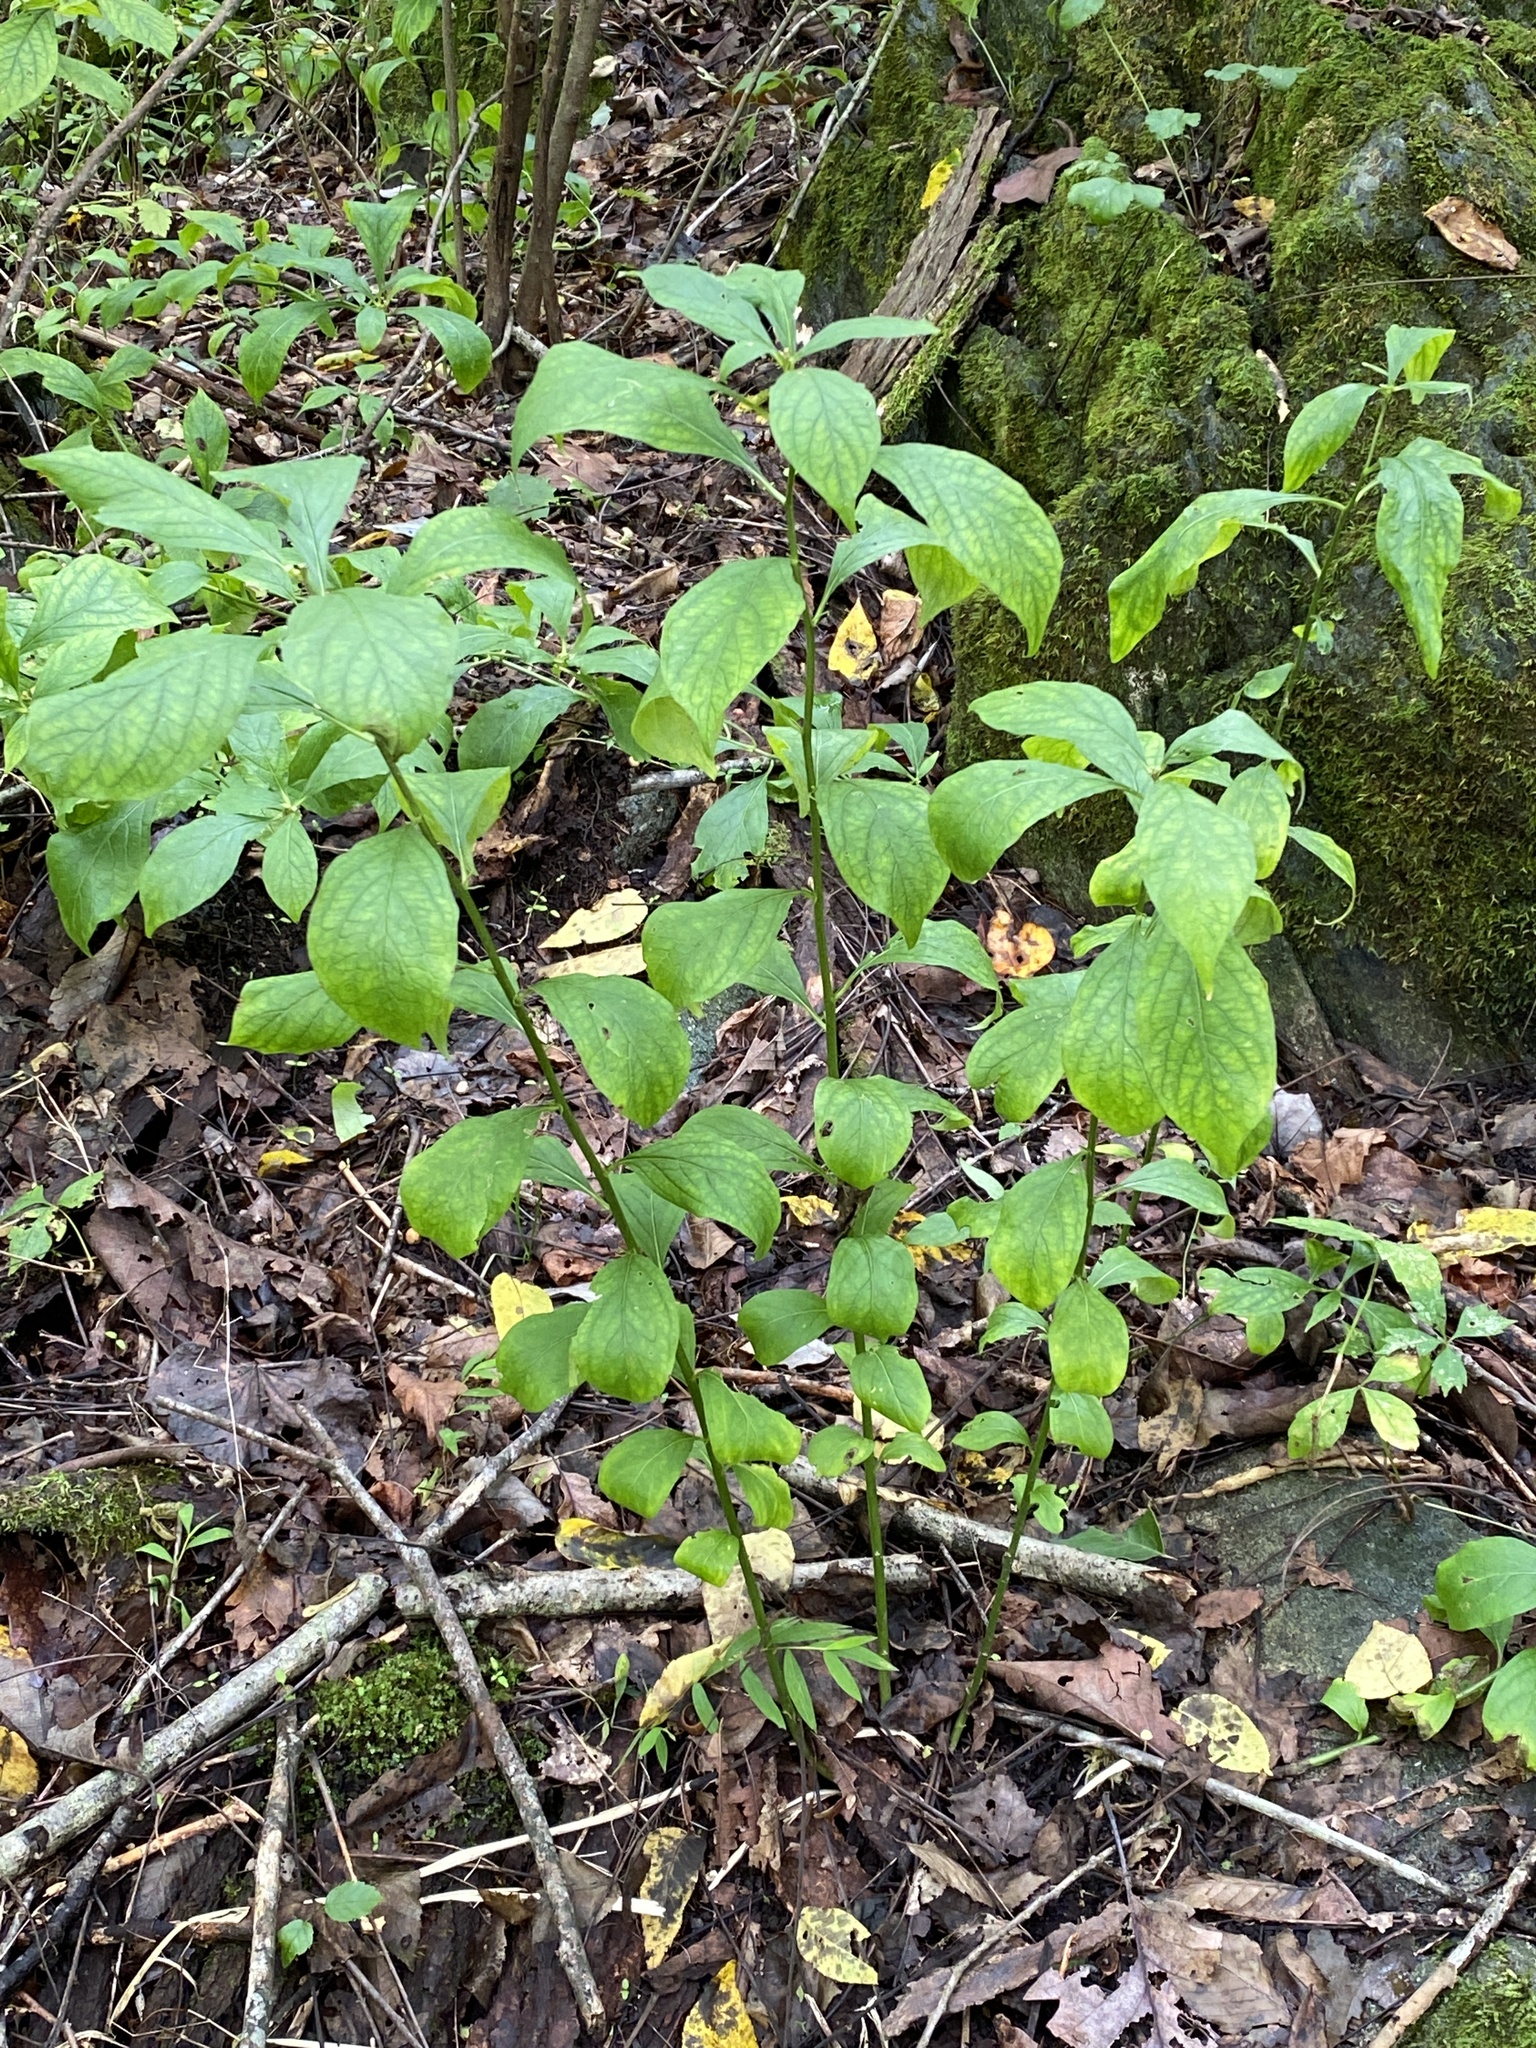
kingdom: Plantae
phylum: Tracheophyta
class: Magnoliopsida
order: Malpighiales
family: Violaceae
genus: Cubelium
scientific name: Cubelium concolor
